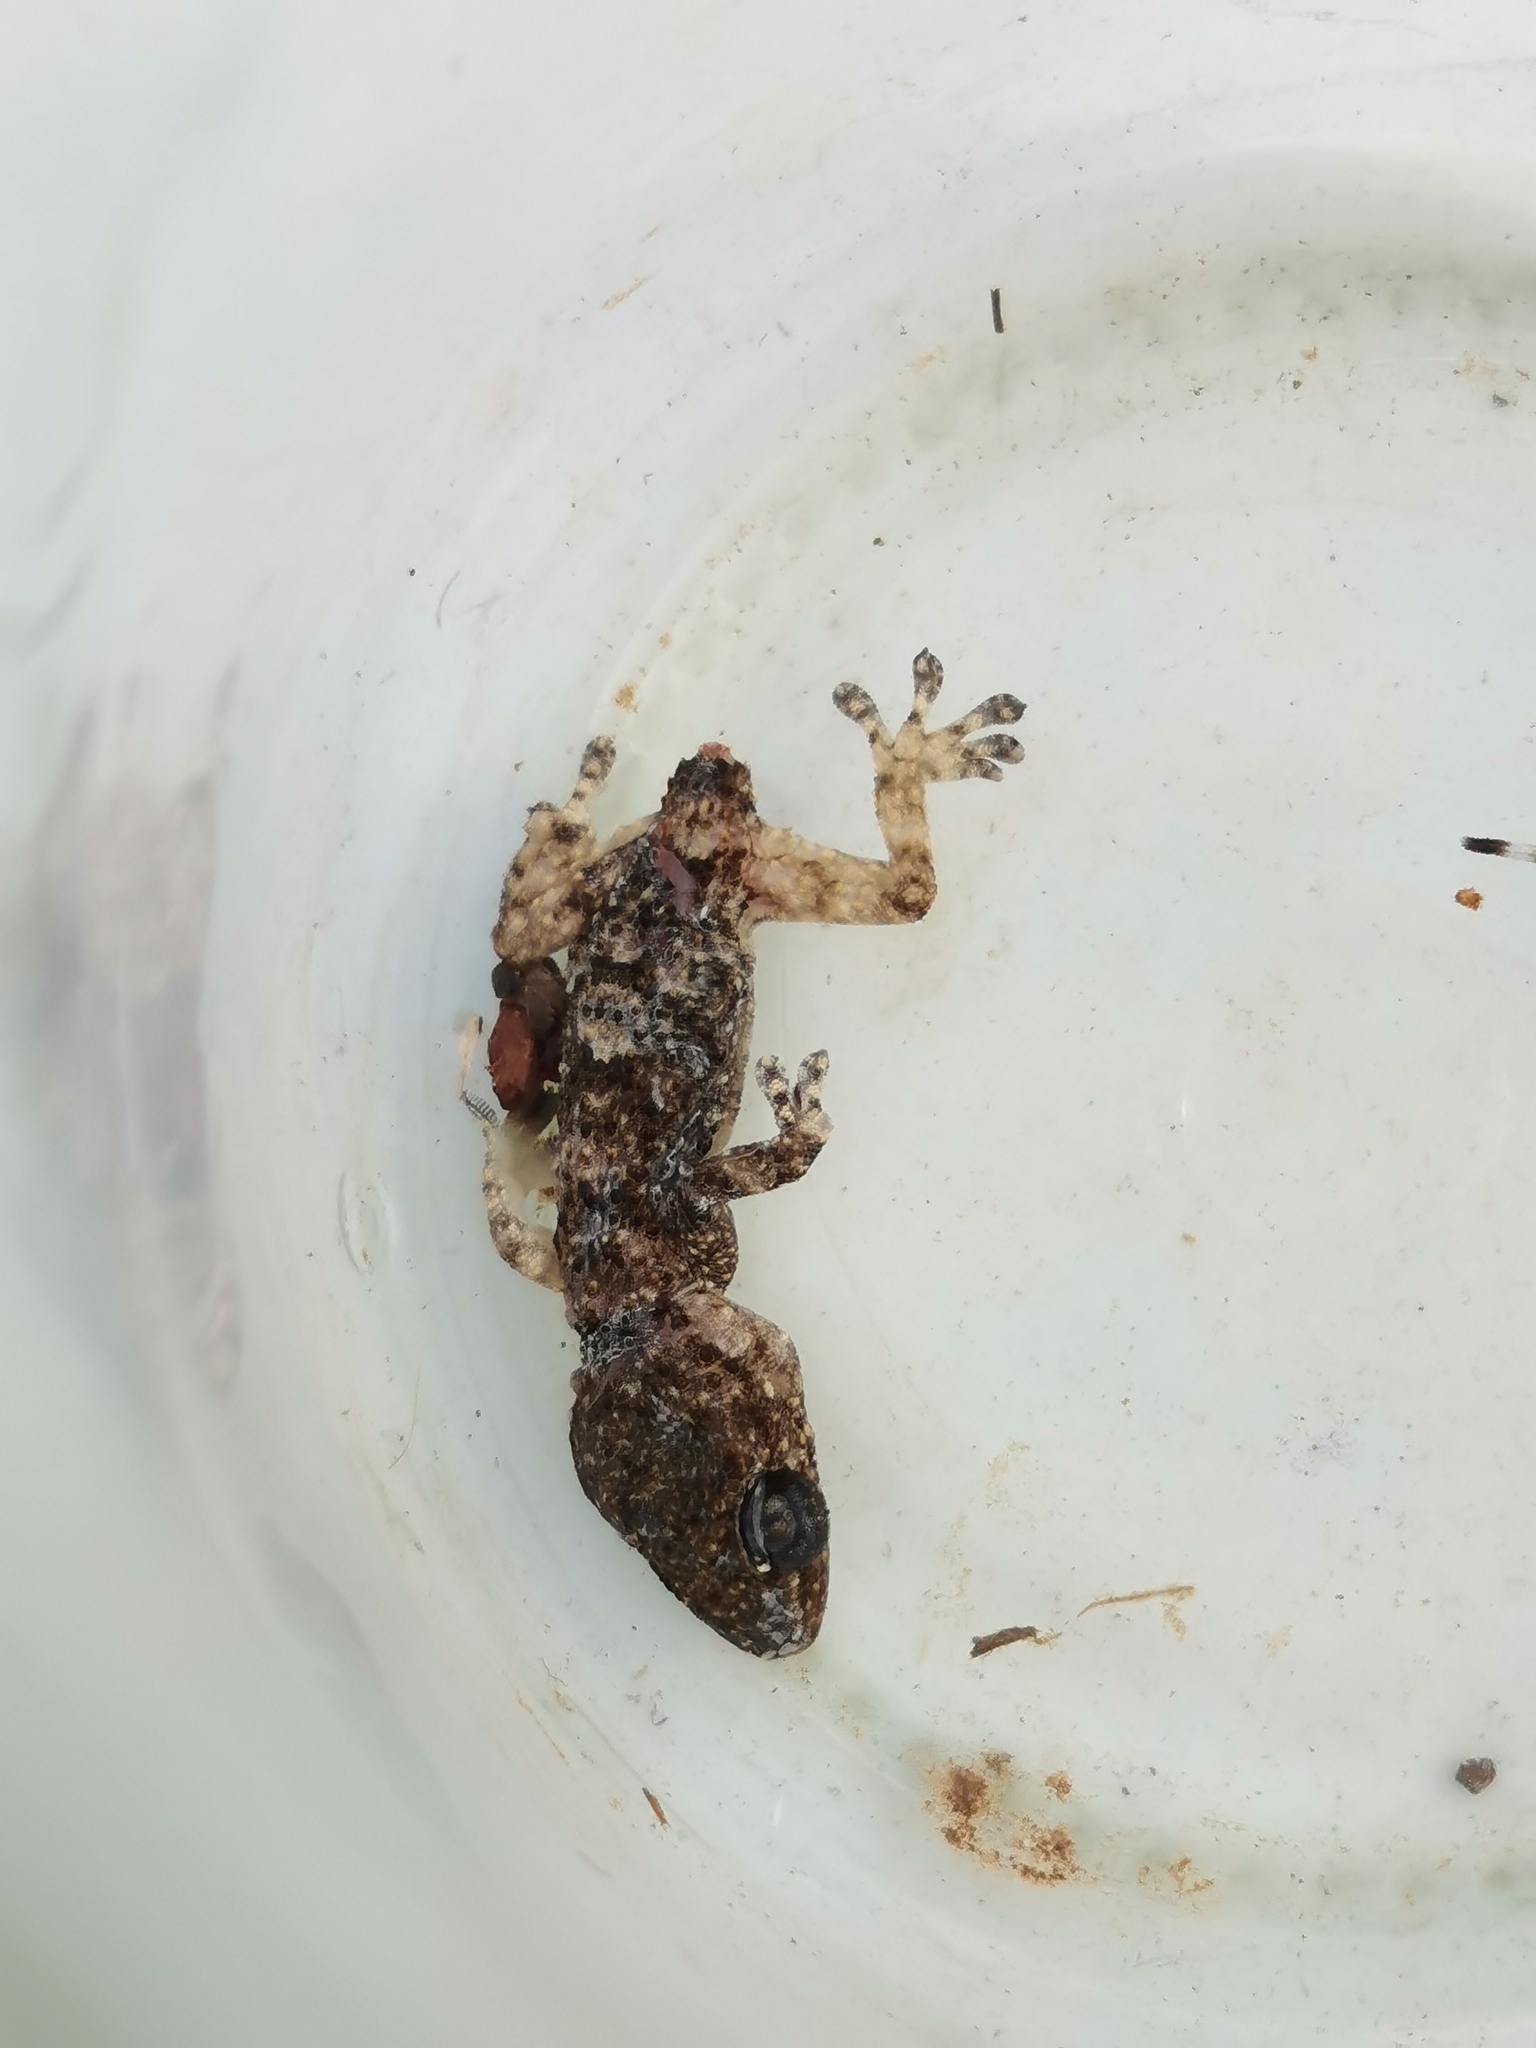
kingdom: Animalia
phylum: Chordata
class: Squamata
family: Phyllodactylidae
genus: Tarentola
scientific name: Tarentola mauritanica
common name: Moorish gecko
